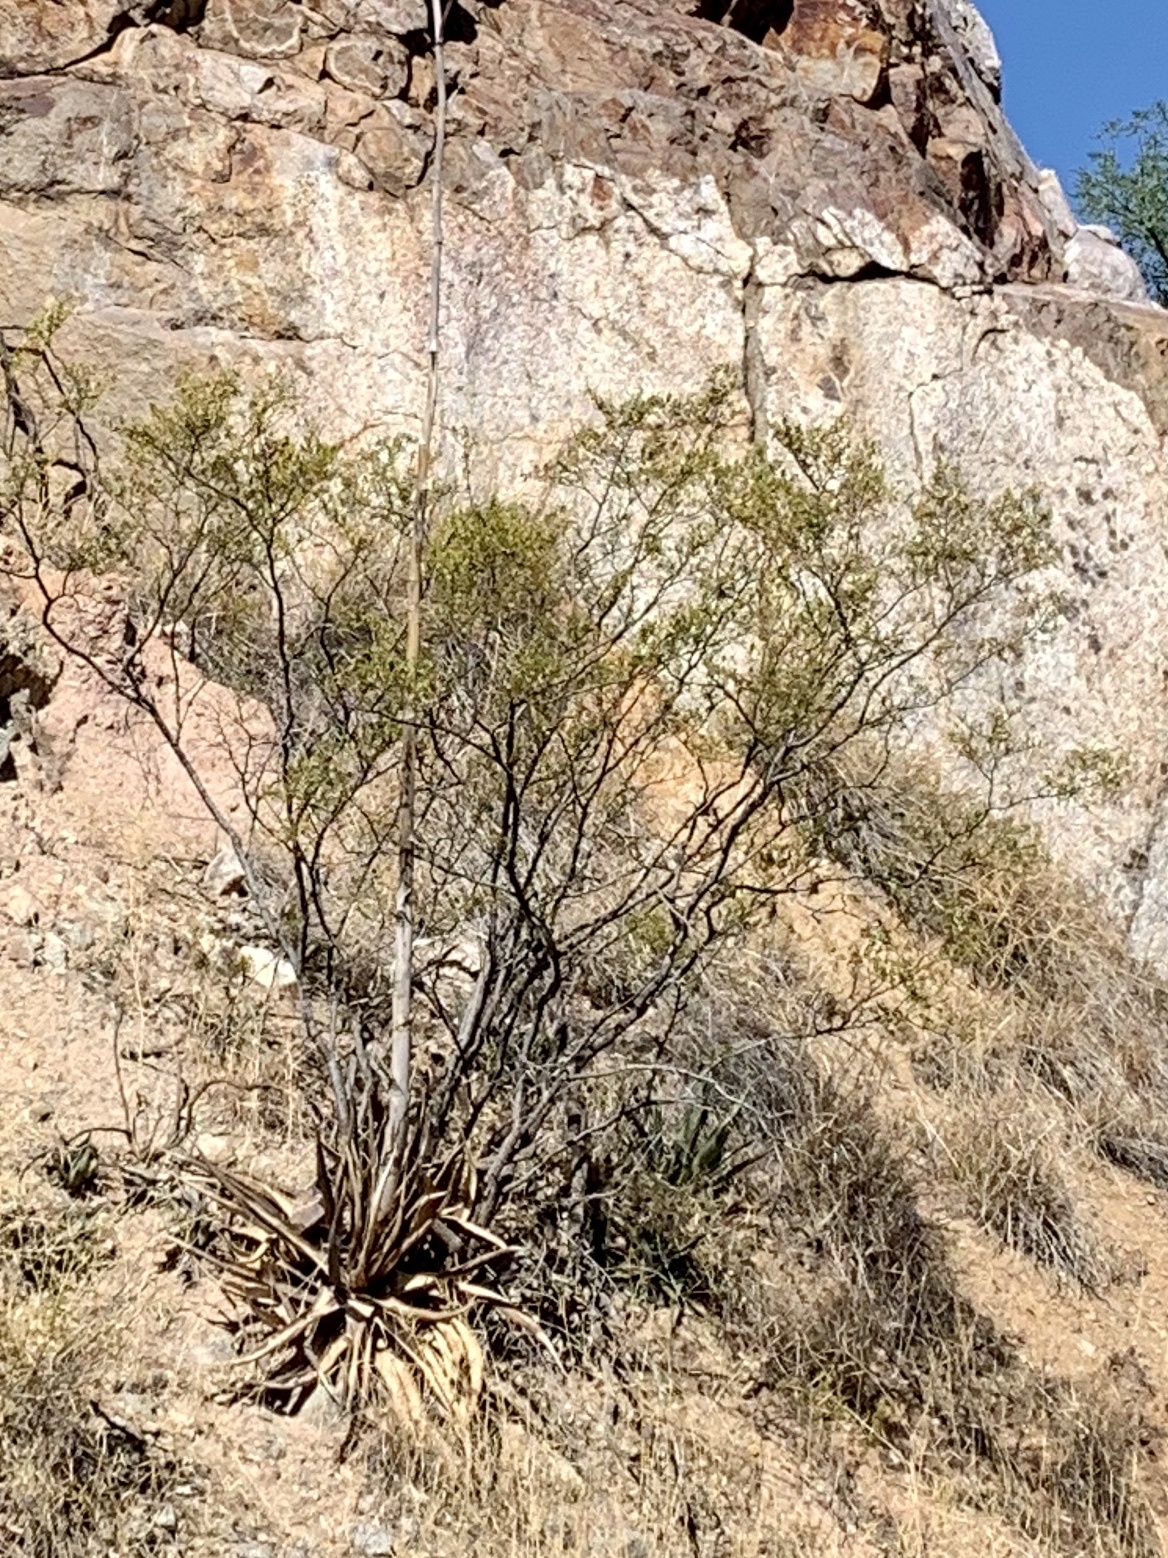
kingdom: Plantae
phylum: Tracheophyta
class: Magnoliopsida
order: Zygophyllales
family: Zygophyllaceae
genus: Larrea
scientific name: Larrea tridentata
